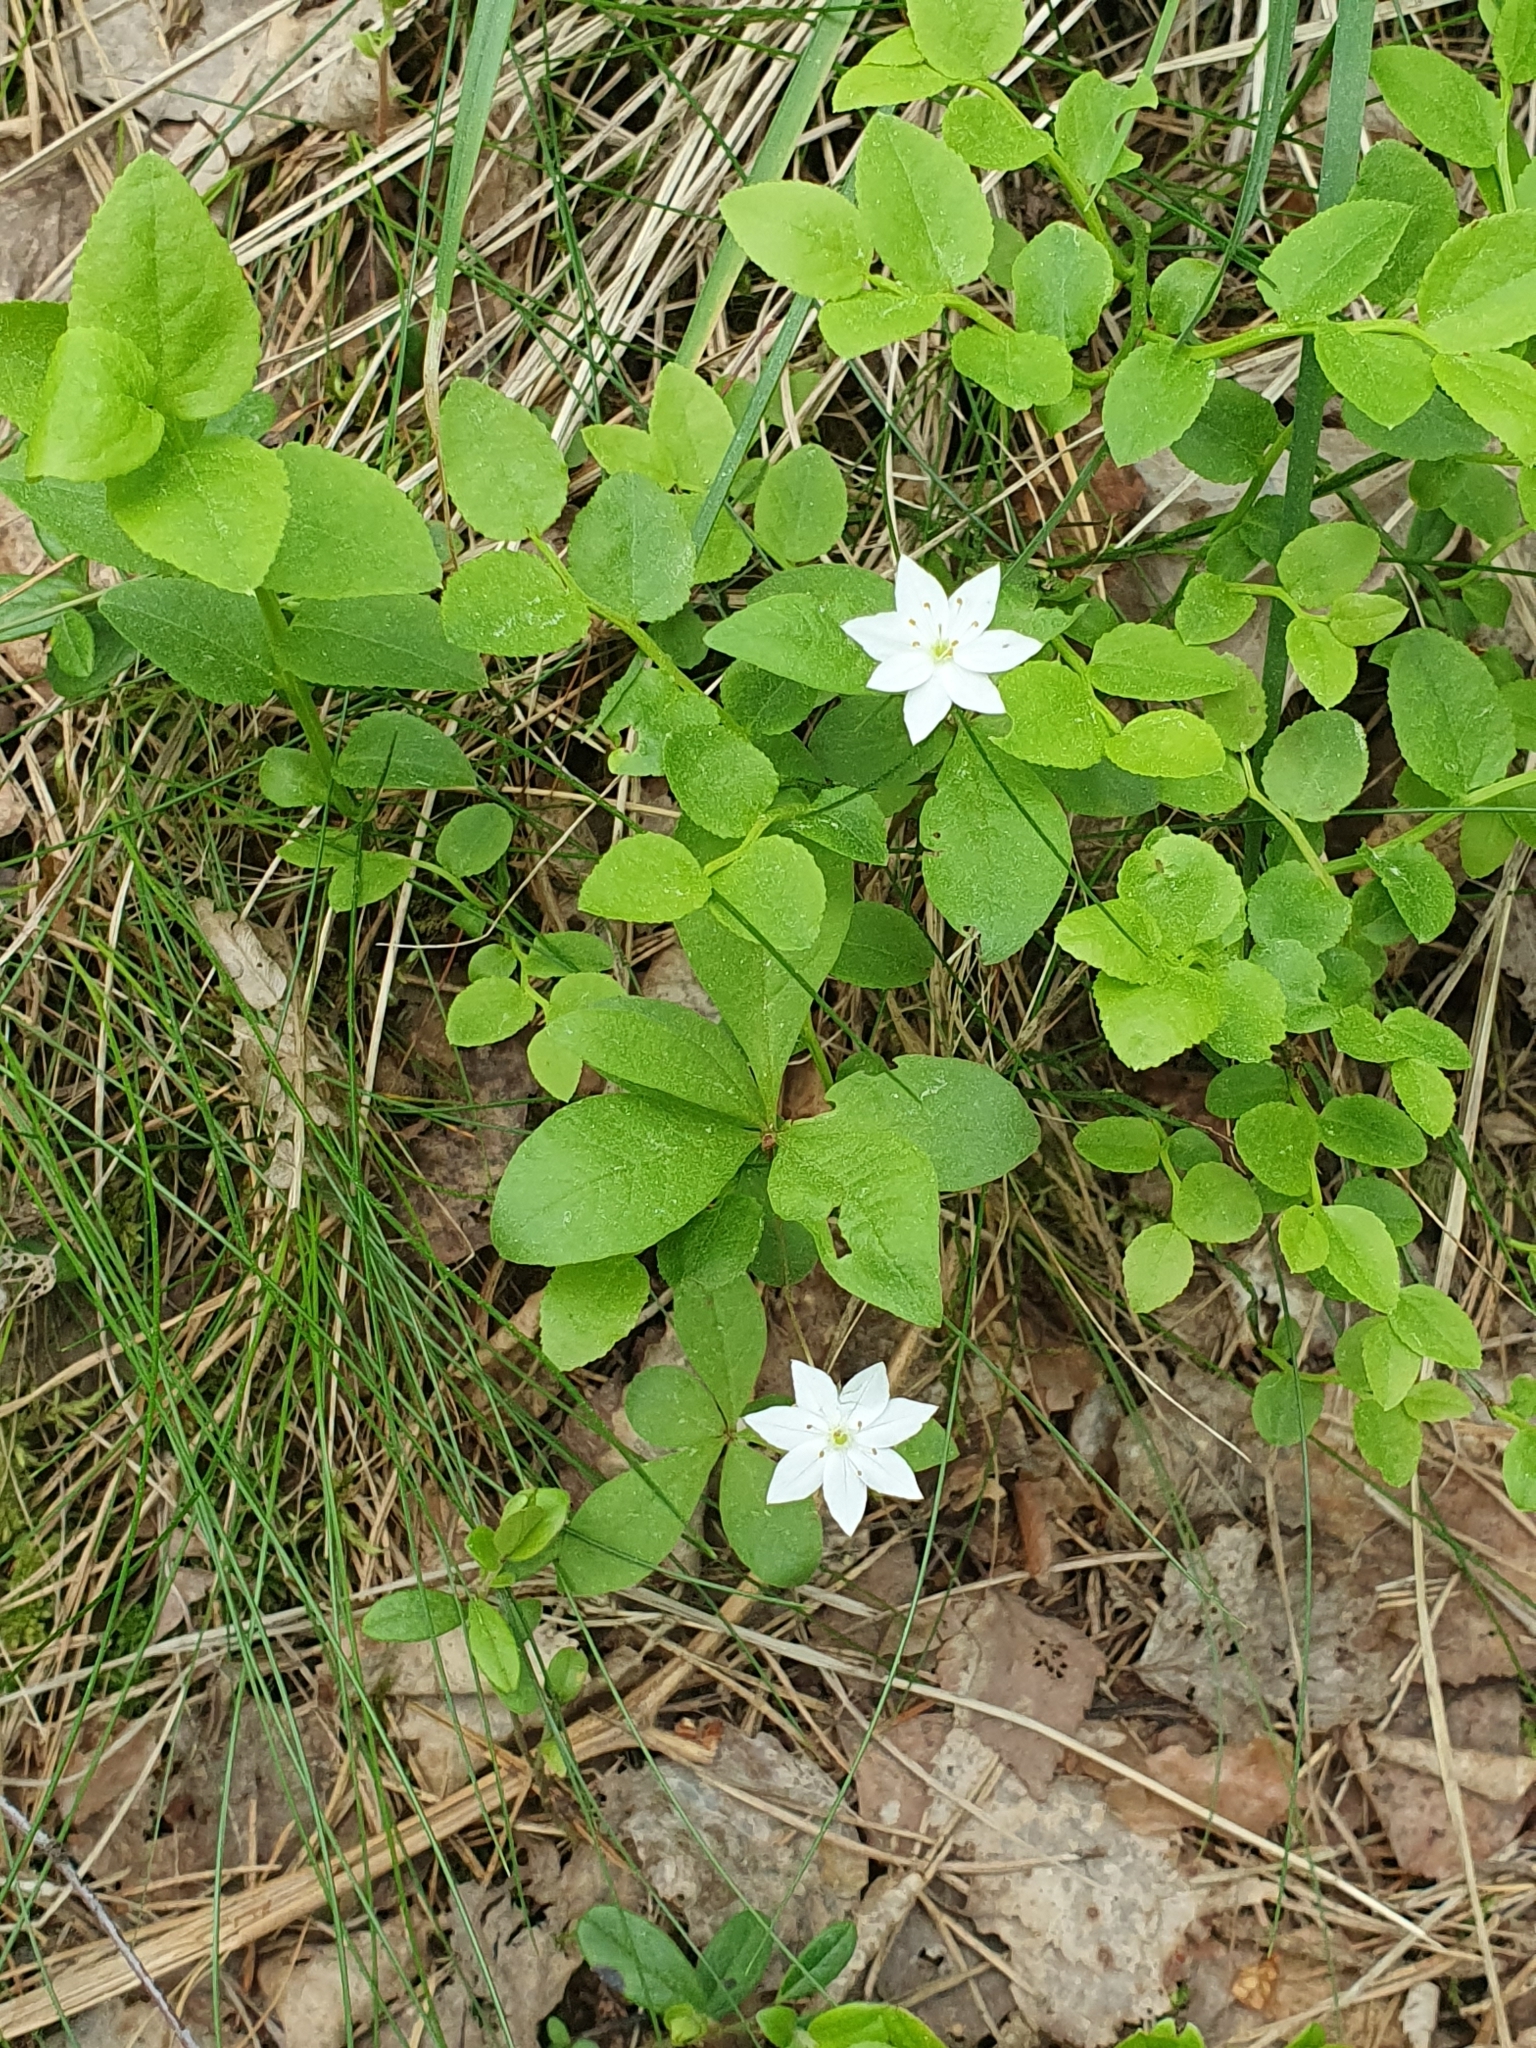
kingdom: Plantae
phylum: Tracheophyta
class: Magnoliopsida
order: Ericales
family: Primulaceae
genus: Lysimachia
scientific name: Lysimachia europaea
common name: Arctic starflower
